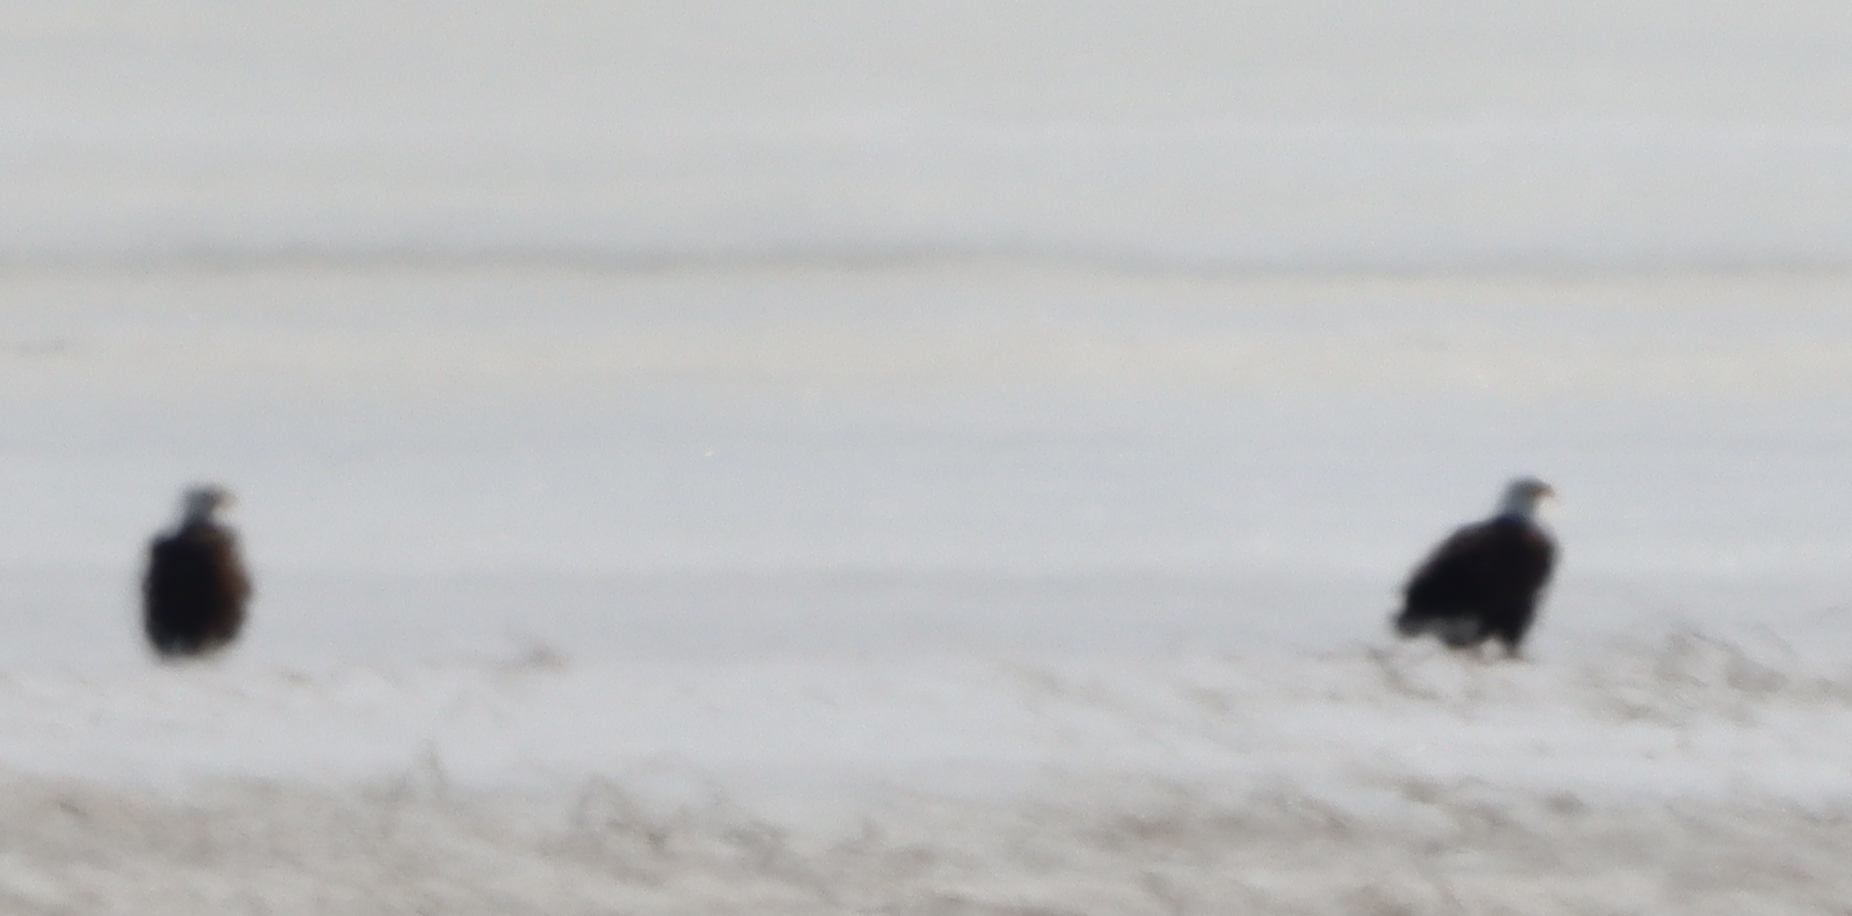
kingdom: Animalia
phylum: Chordata
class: Aves
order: Accipitriformes
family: Accipitridae
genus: Haliaeetus
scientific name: Haliaeetus leucocephalus
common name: Bald eagle
